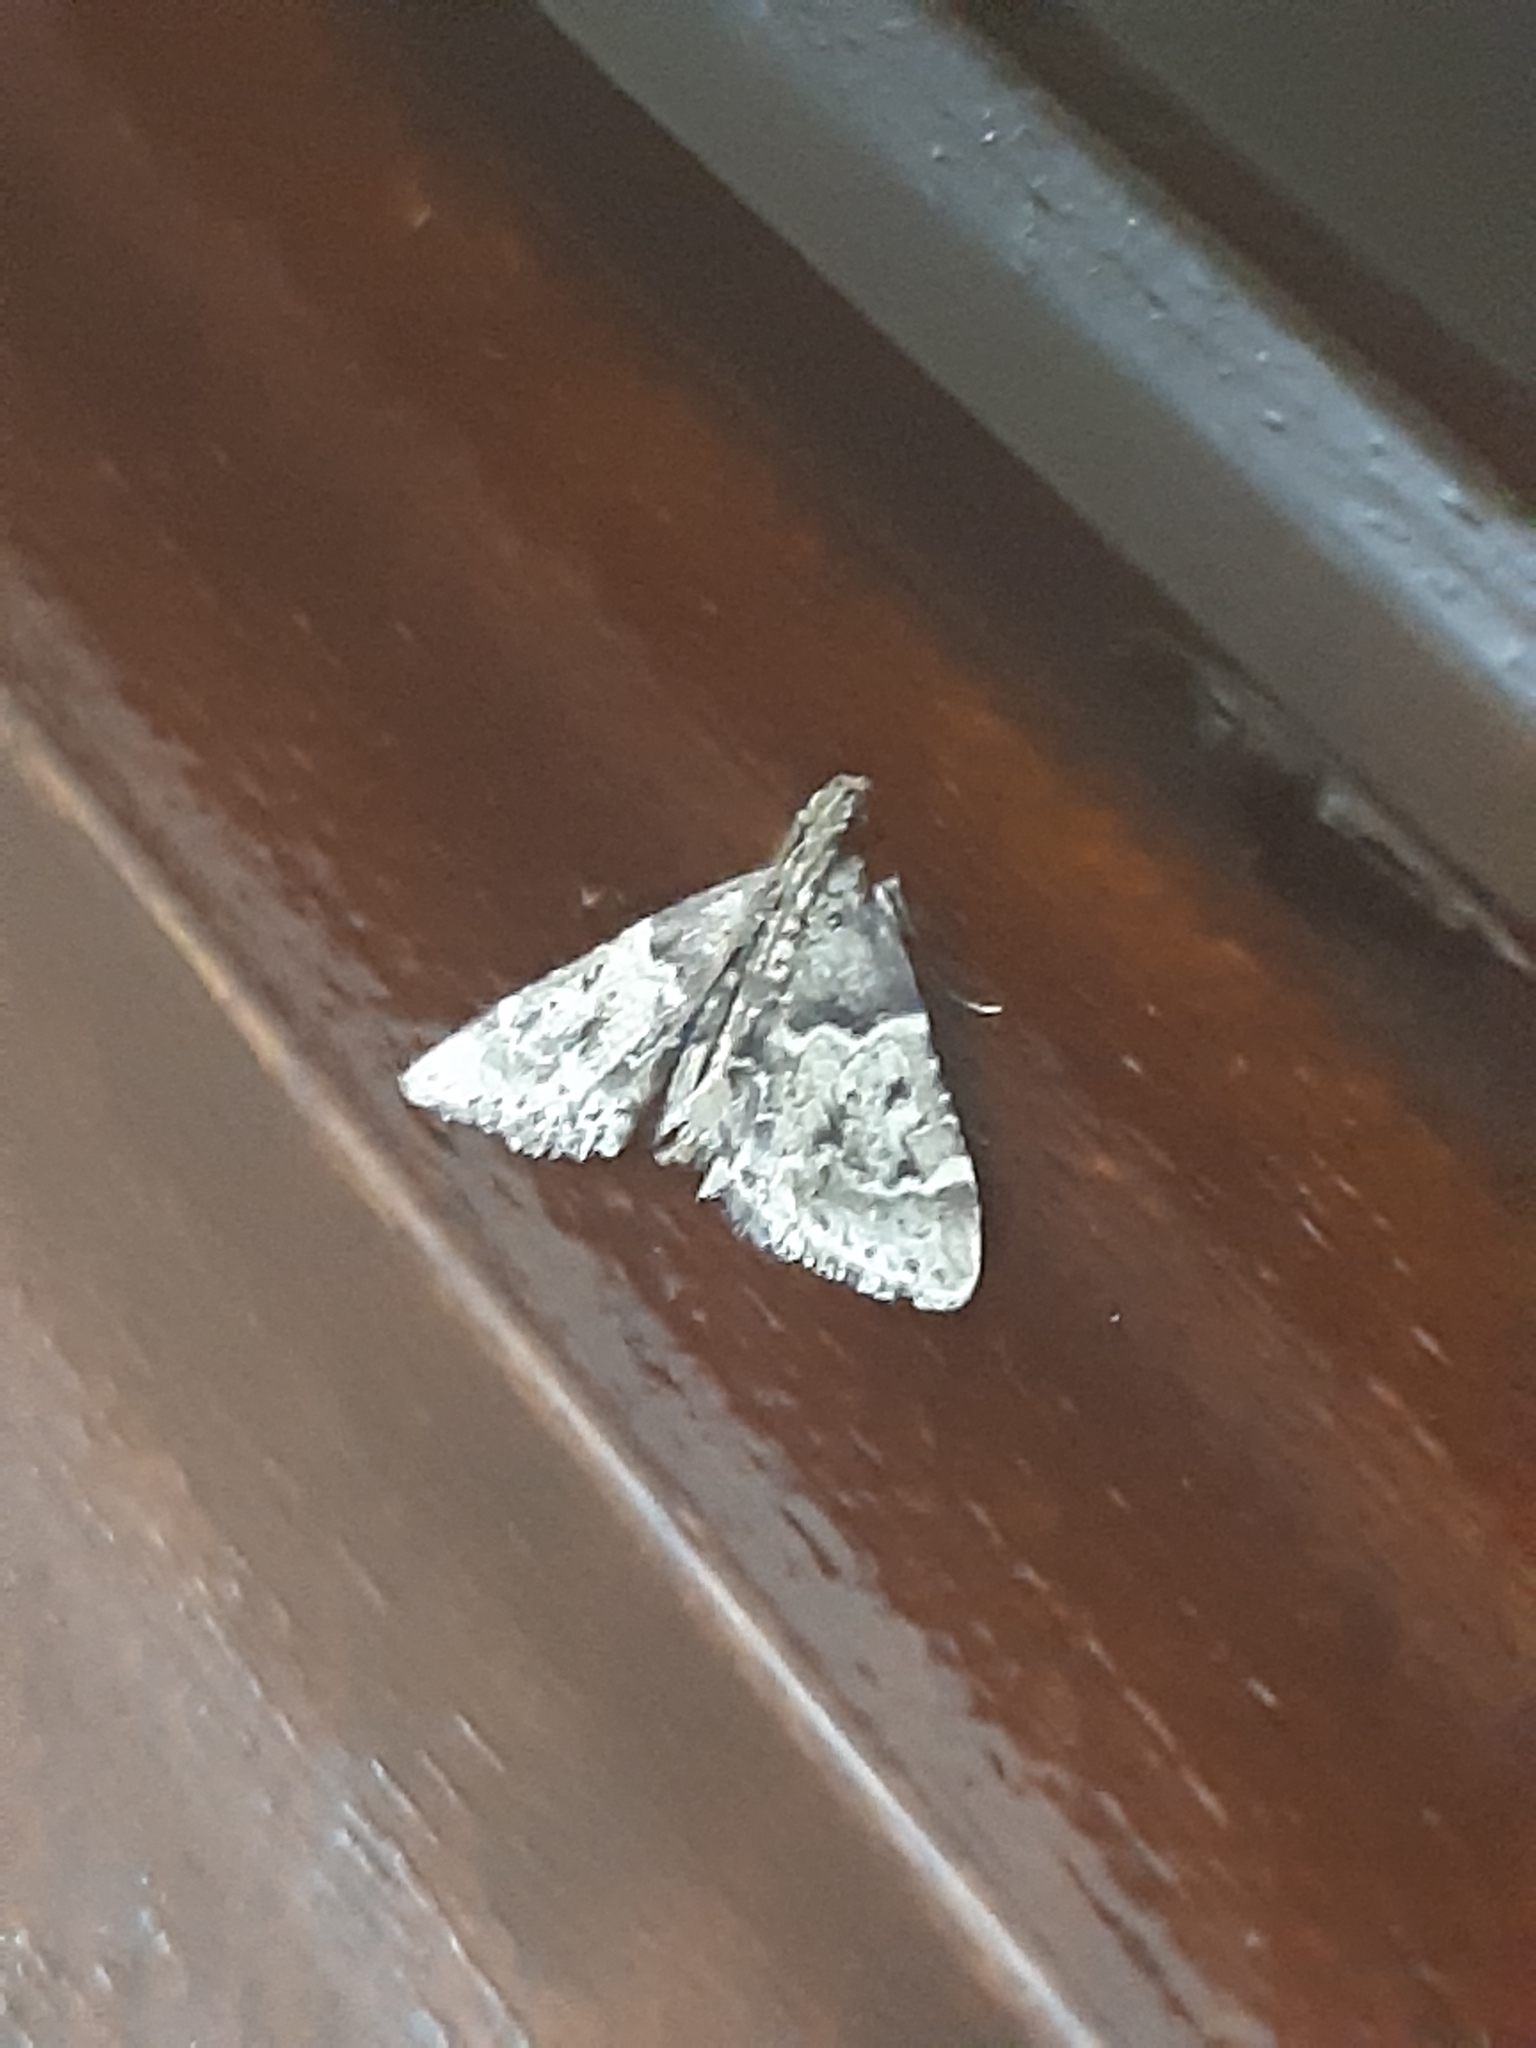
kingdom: Animalia
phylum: Arthropoda
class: Insecta
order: Lepidoptera
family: Pyralidae
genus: Pyralis
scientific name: Pyralis manihotalis
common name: Moth
